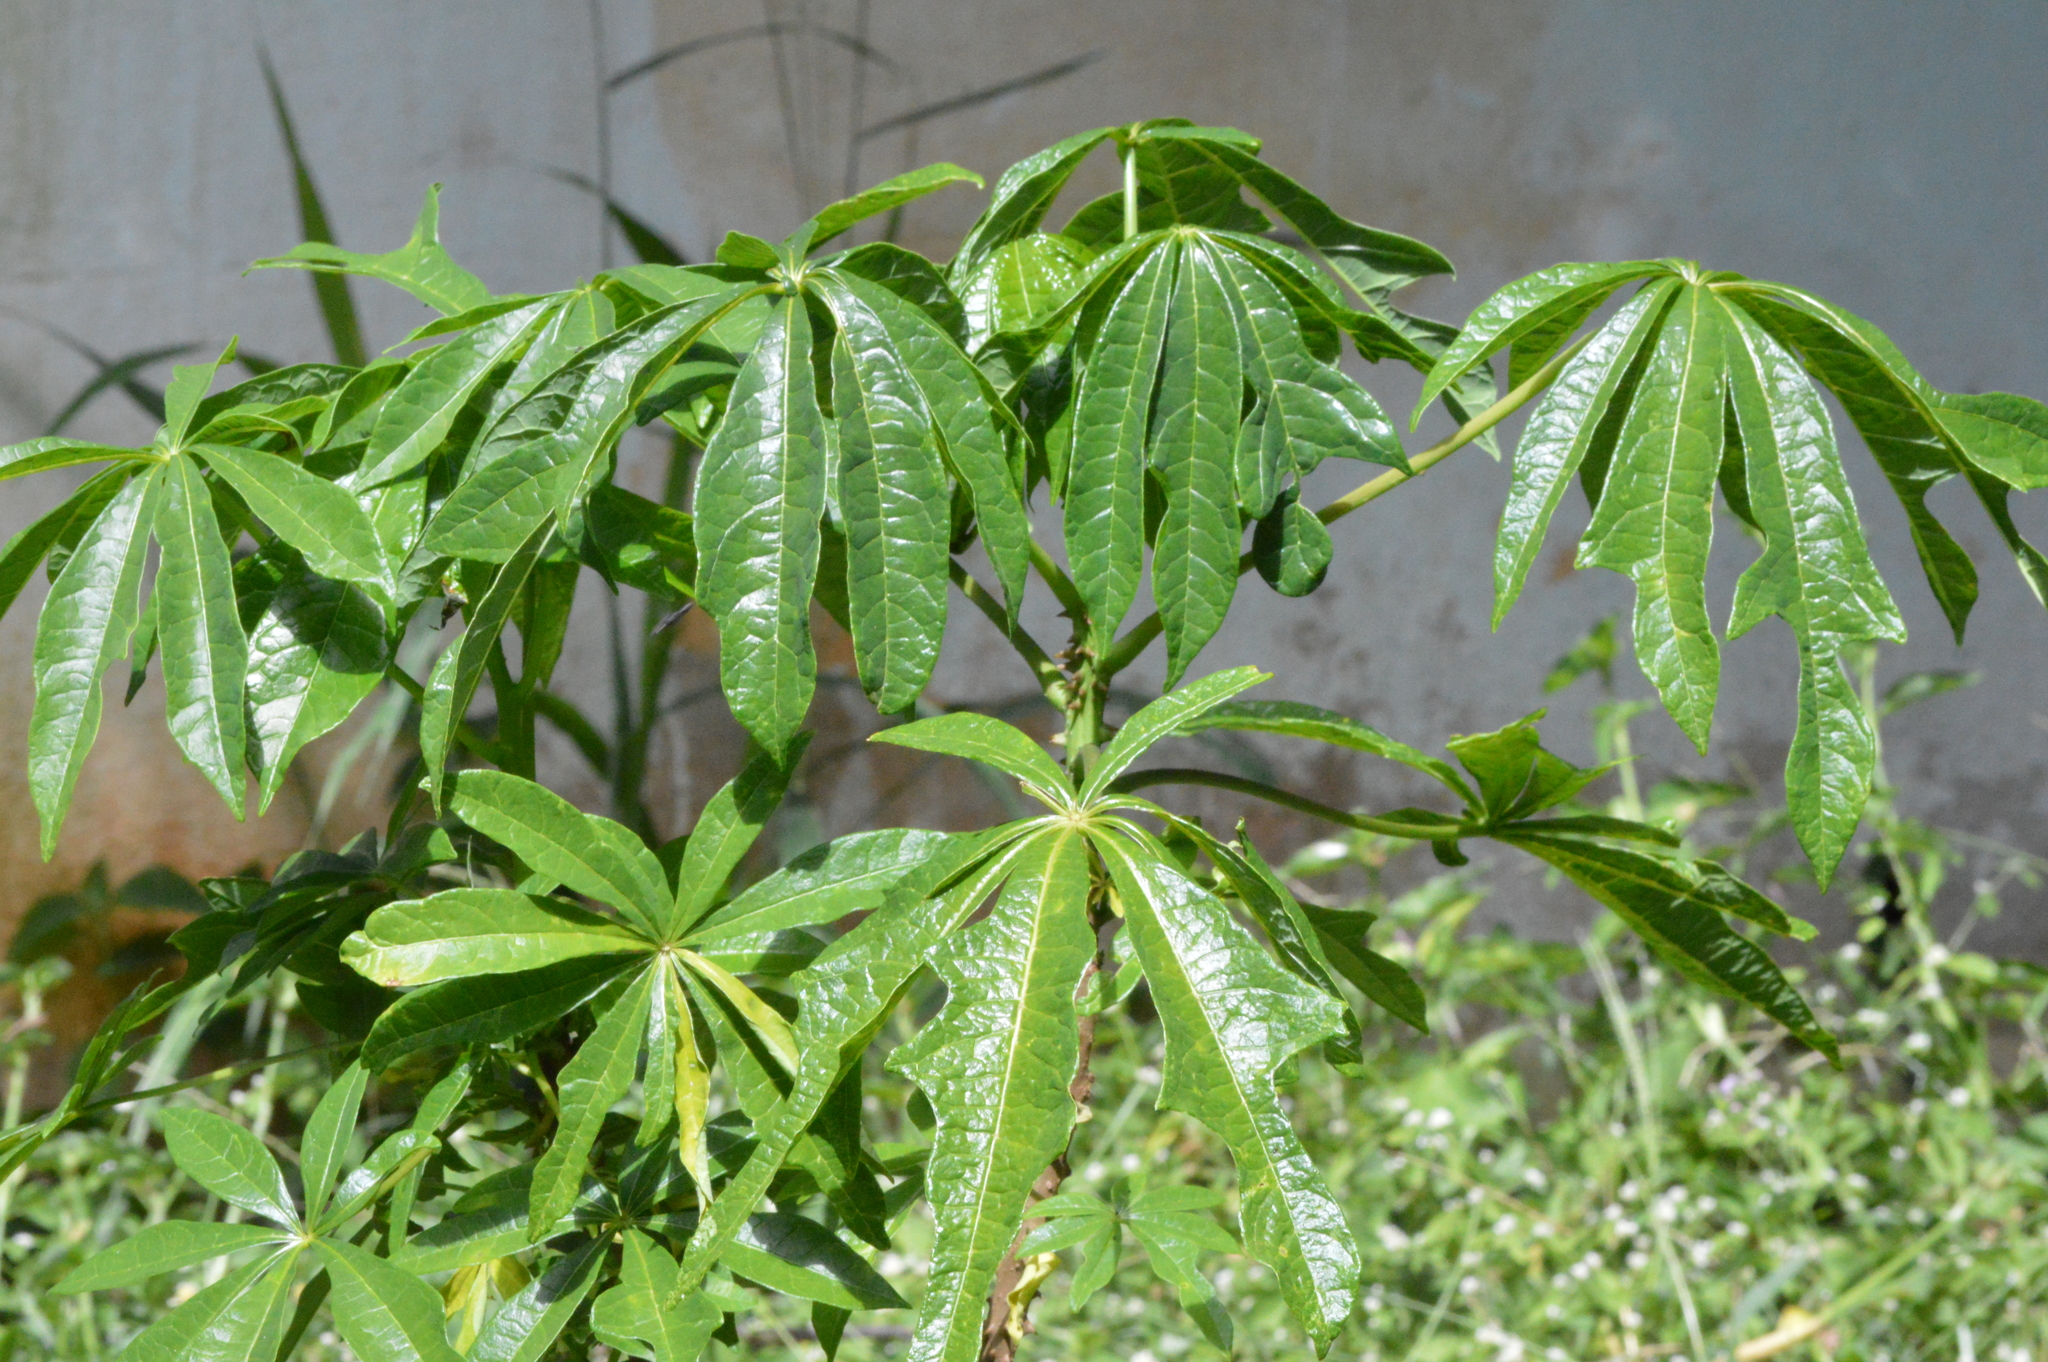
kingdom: Plantae
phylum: Tracheophyta
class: Magnoliopsida
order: Malvales
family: Malvaceae
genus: Theobroma
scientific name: Theobroma speciosum
